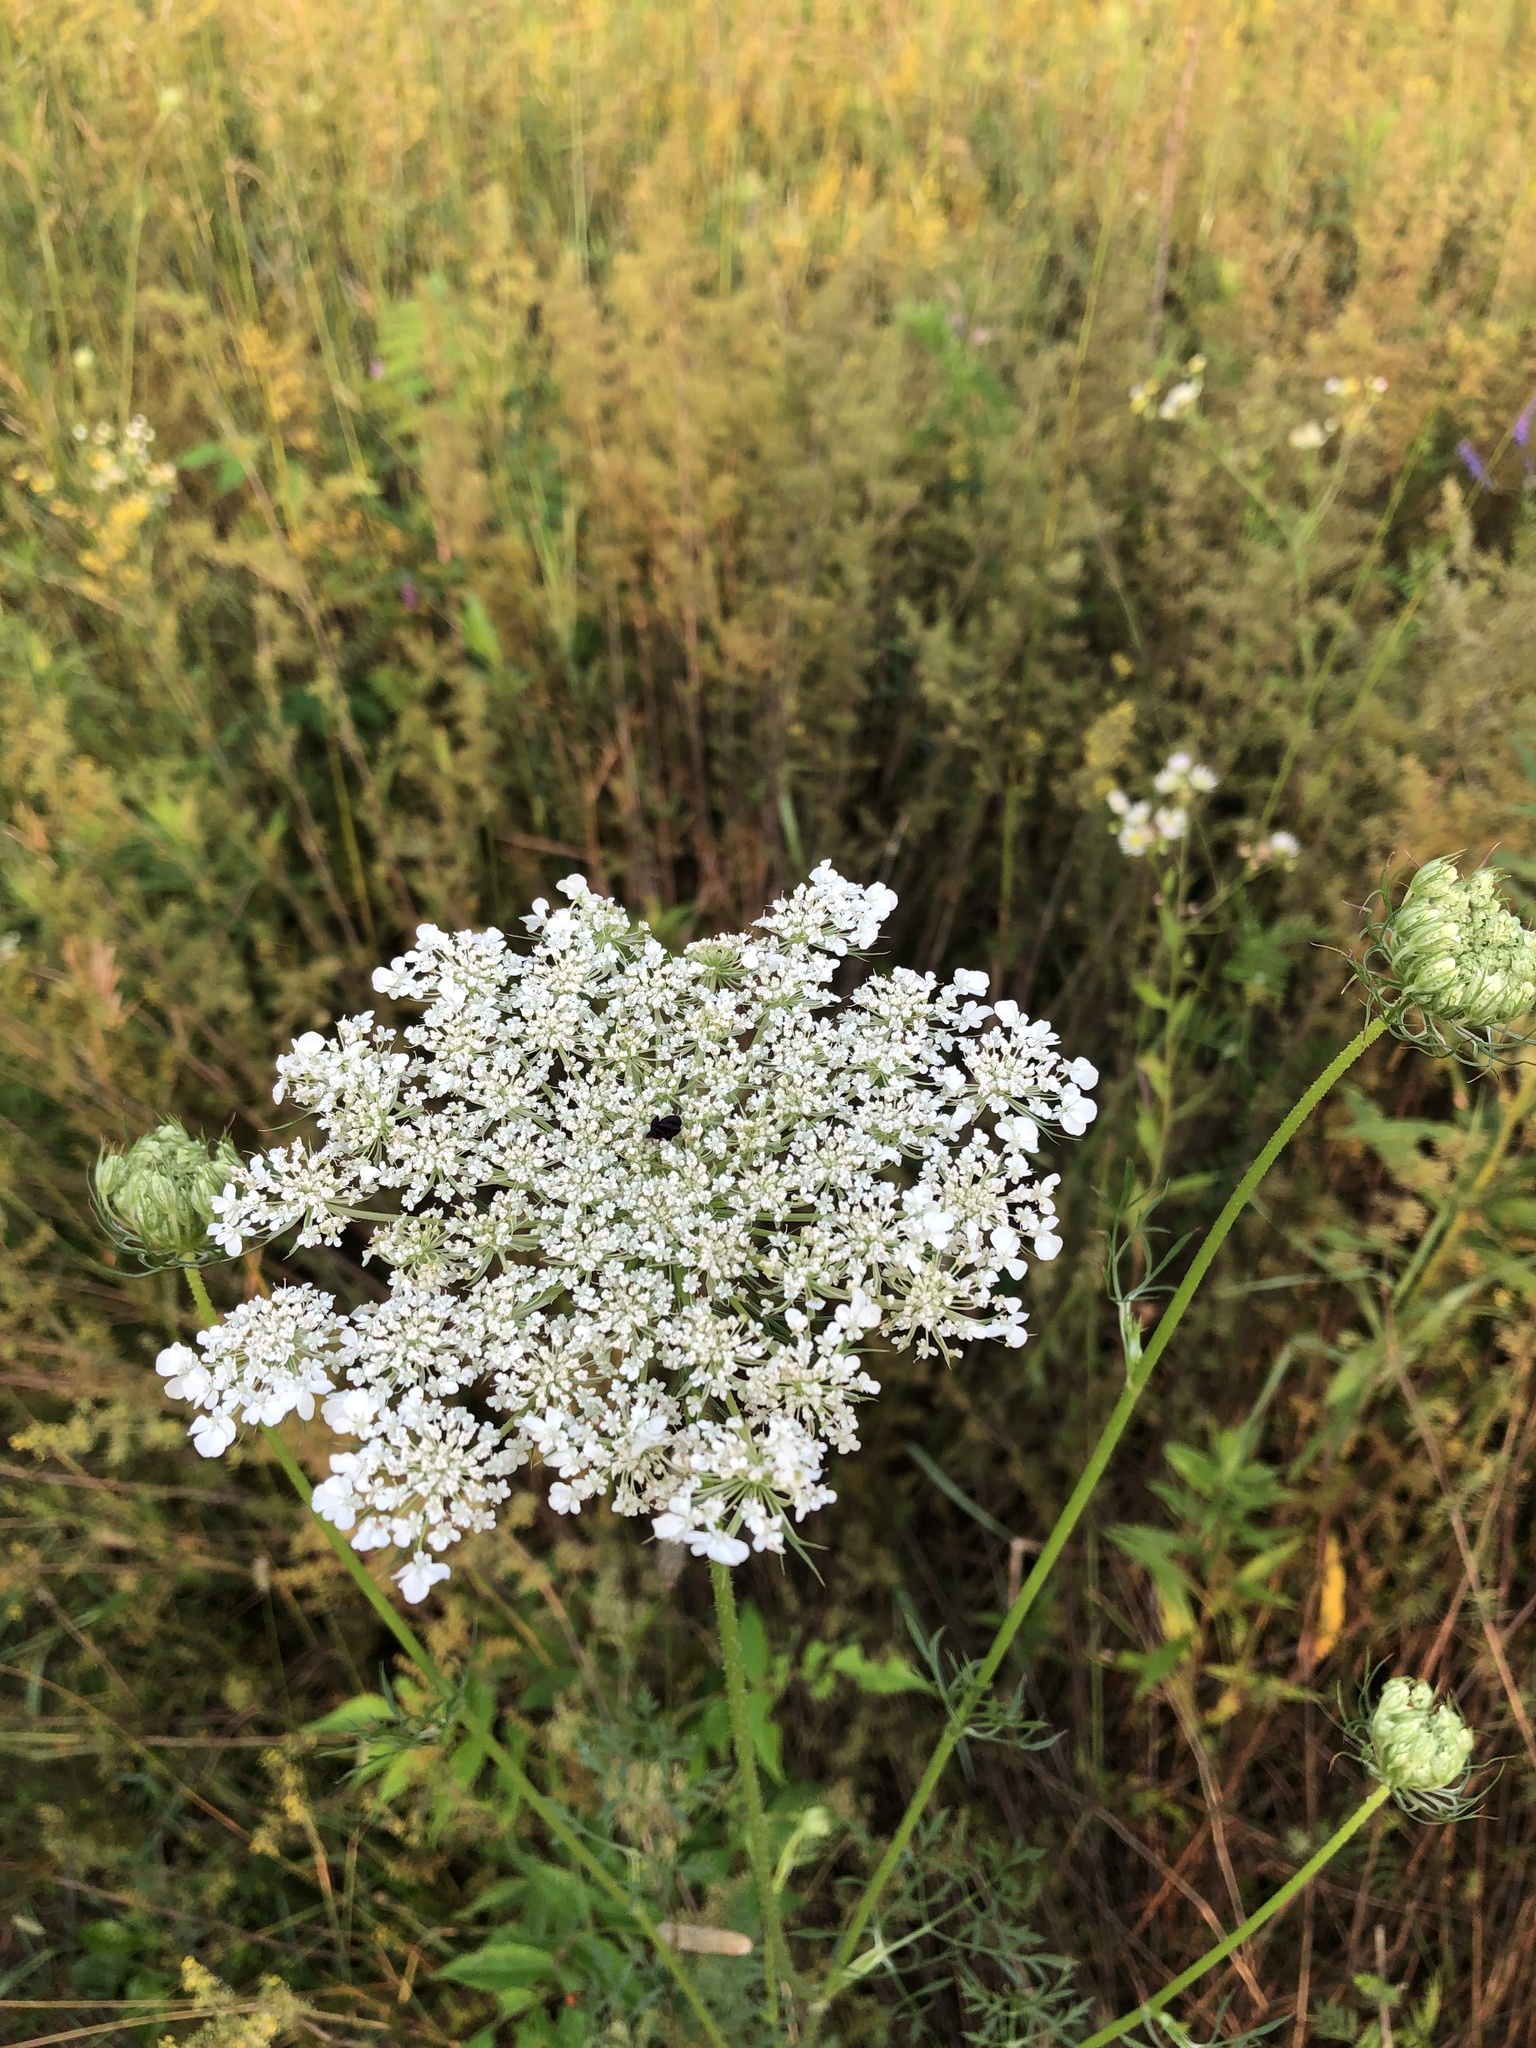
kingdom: Plantae
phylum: Tracheophyta
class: Magnoliopsida
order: Apiales
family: Apiaceae
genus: Daucus
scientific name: Daucus carota
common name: Wild carrot
